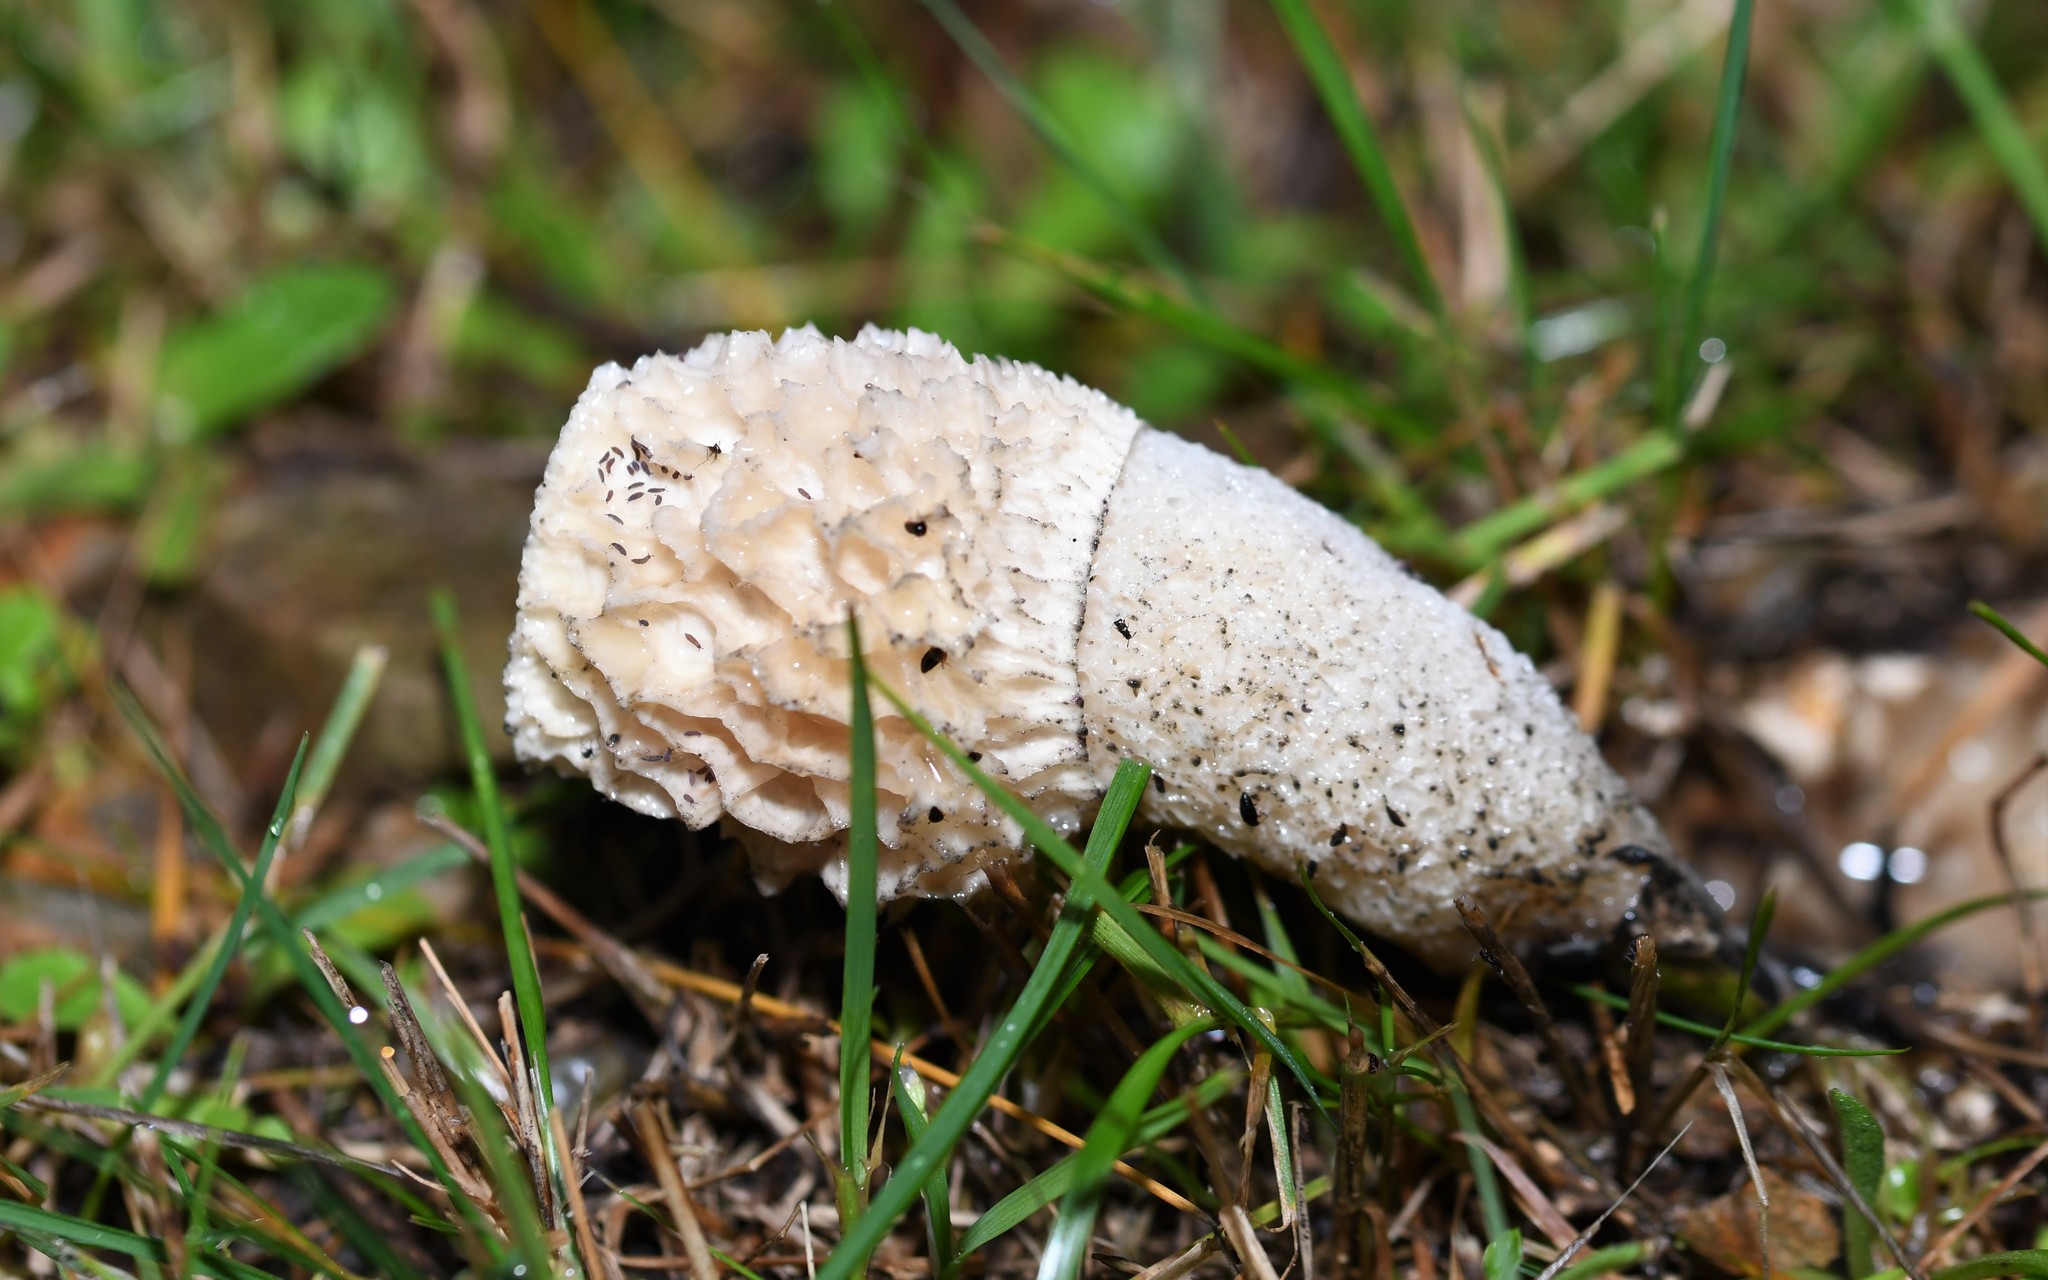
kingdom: Fungi
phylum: Basidiomycota
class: Agaricomycetes
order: Phallales
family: Phallaceae
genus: Phallus
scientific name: Phallus impudicus
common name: Common stinkhorn
